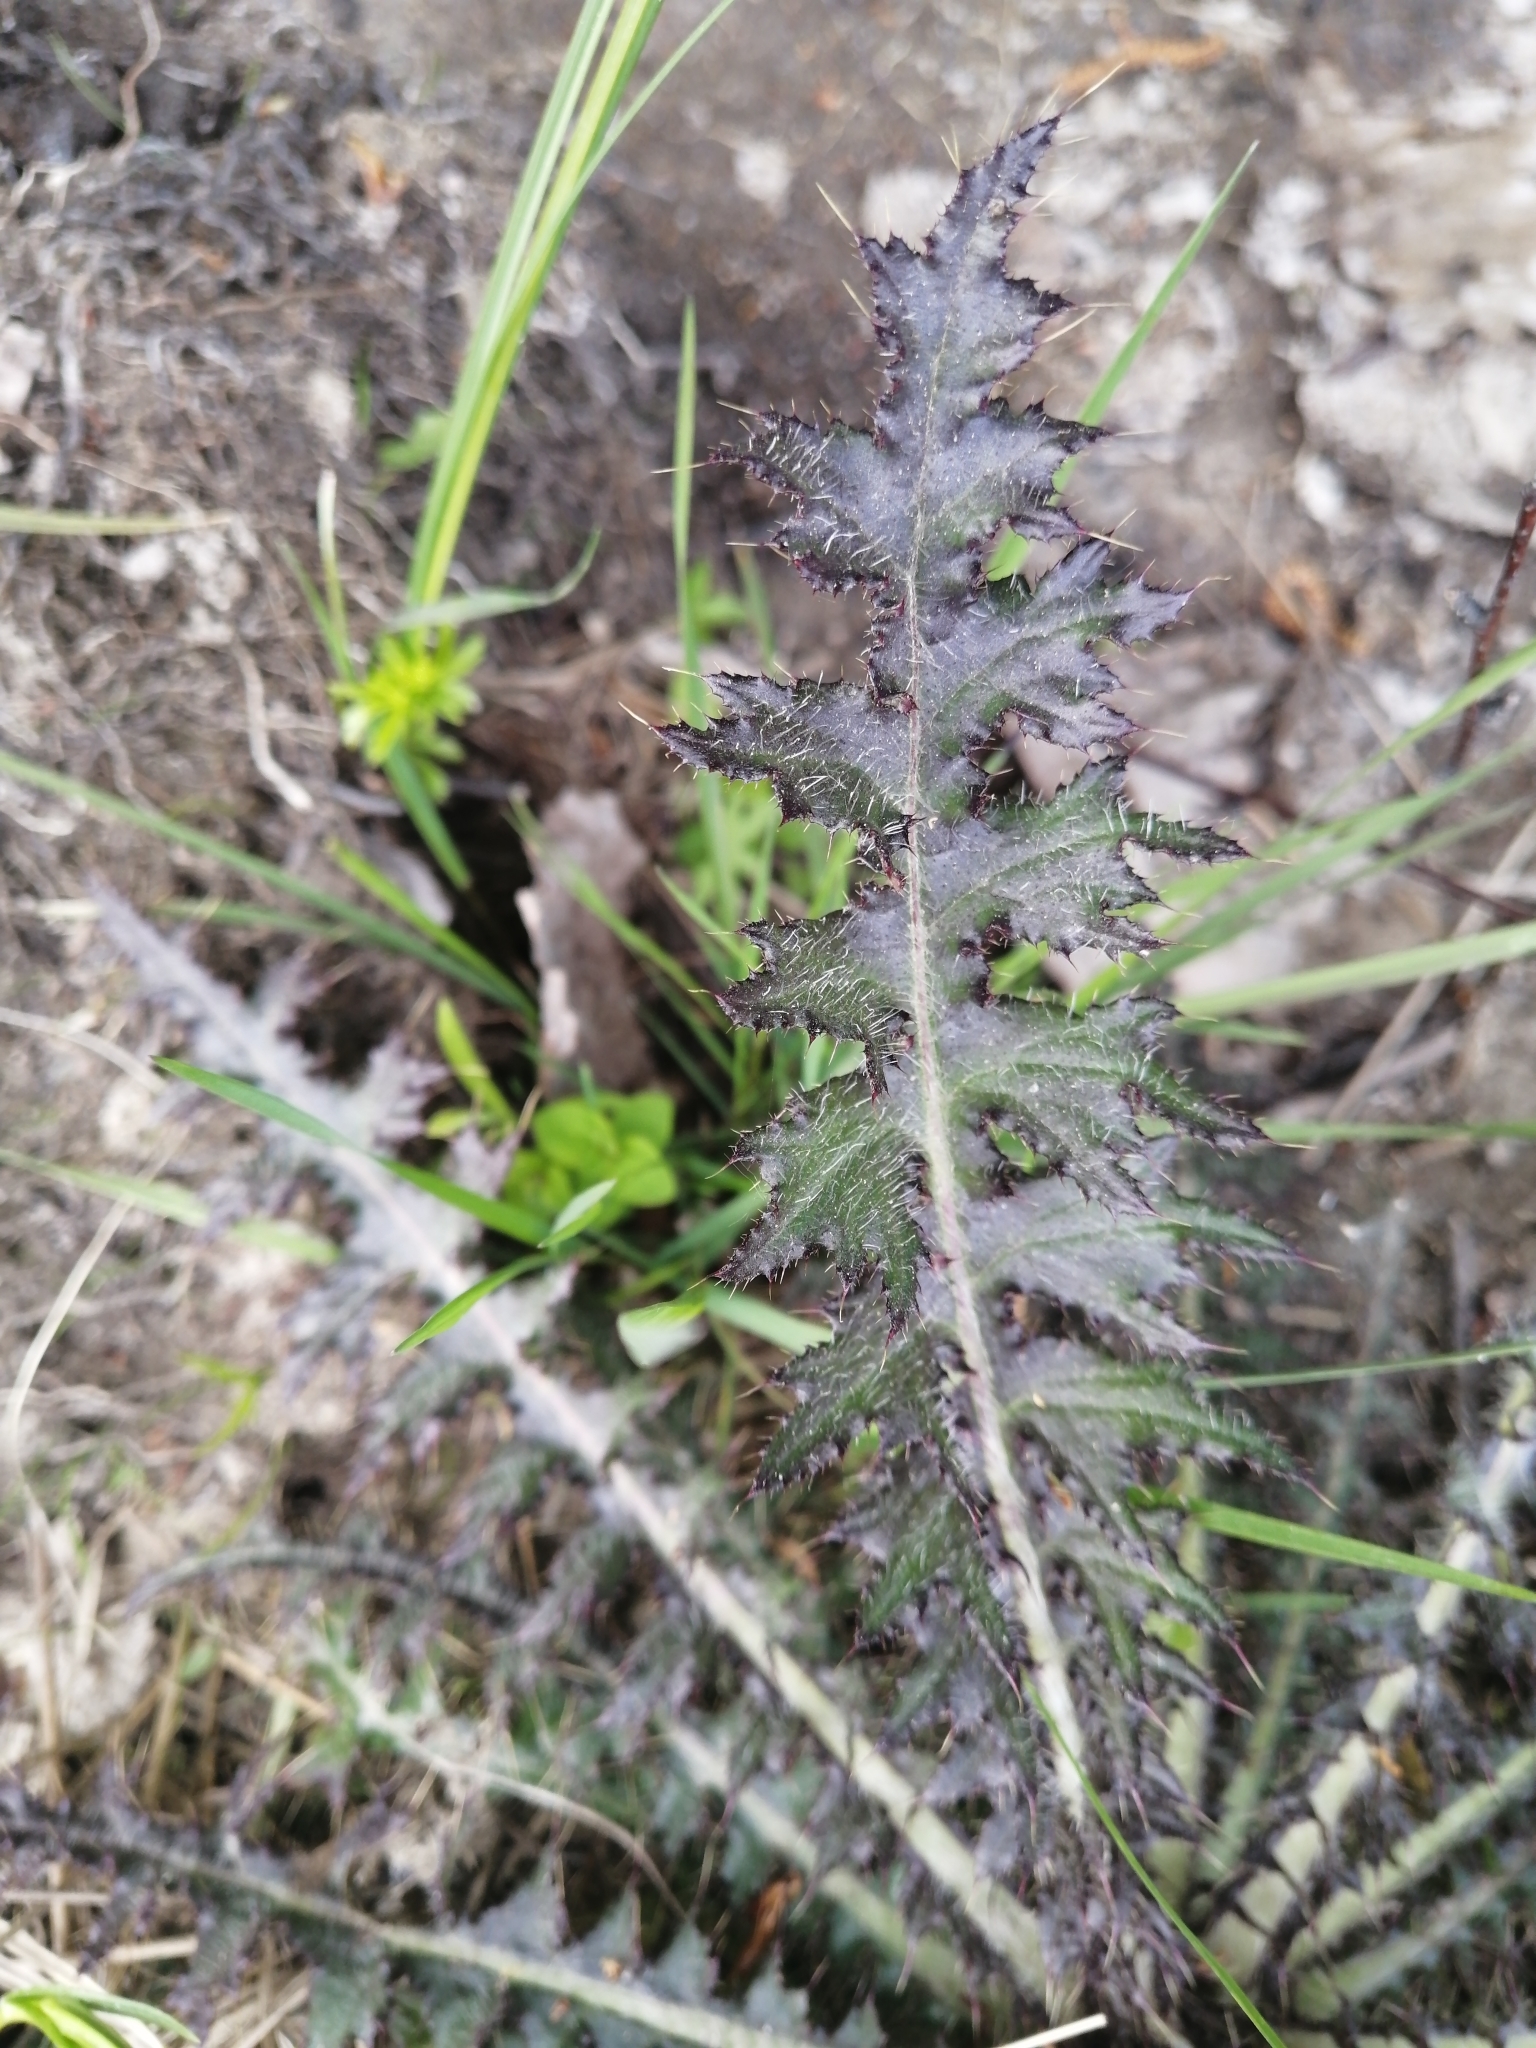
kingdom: Plantae
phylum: Tracheophyta
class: Magnoliopsida
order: Asterales
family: Asteraceae
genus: Cirsium
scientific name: Cirsium palustre
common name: Marsh thistle
